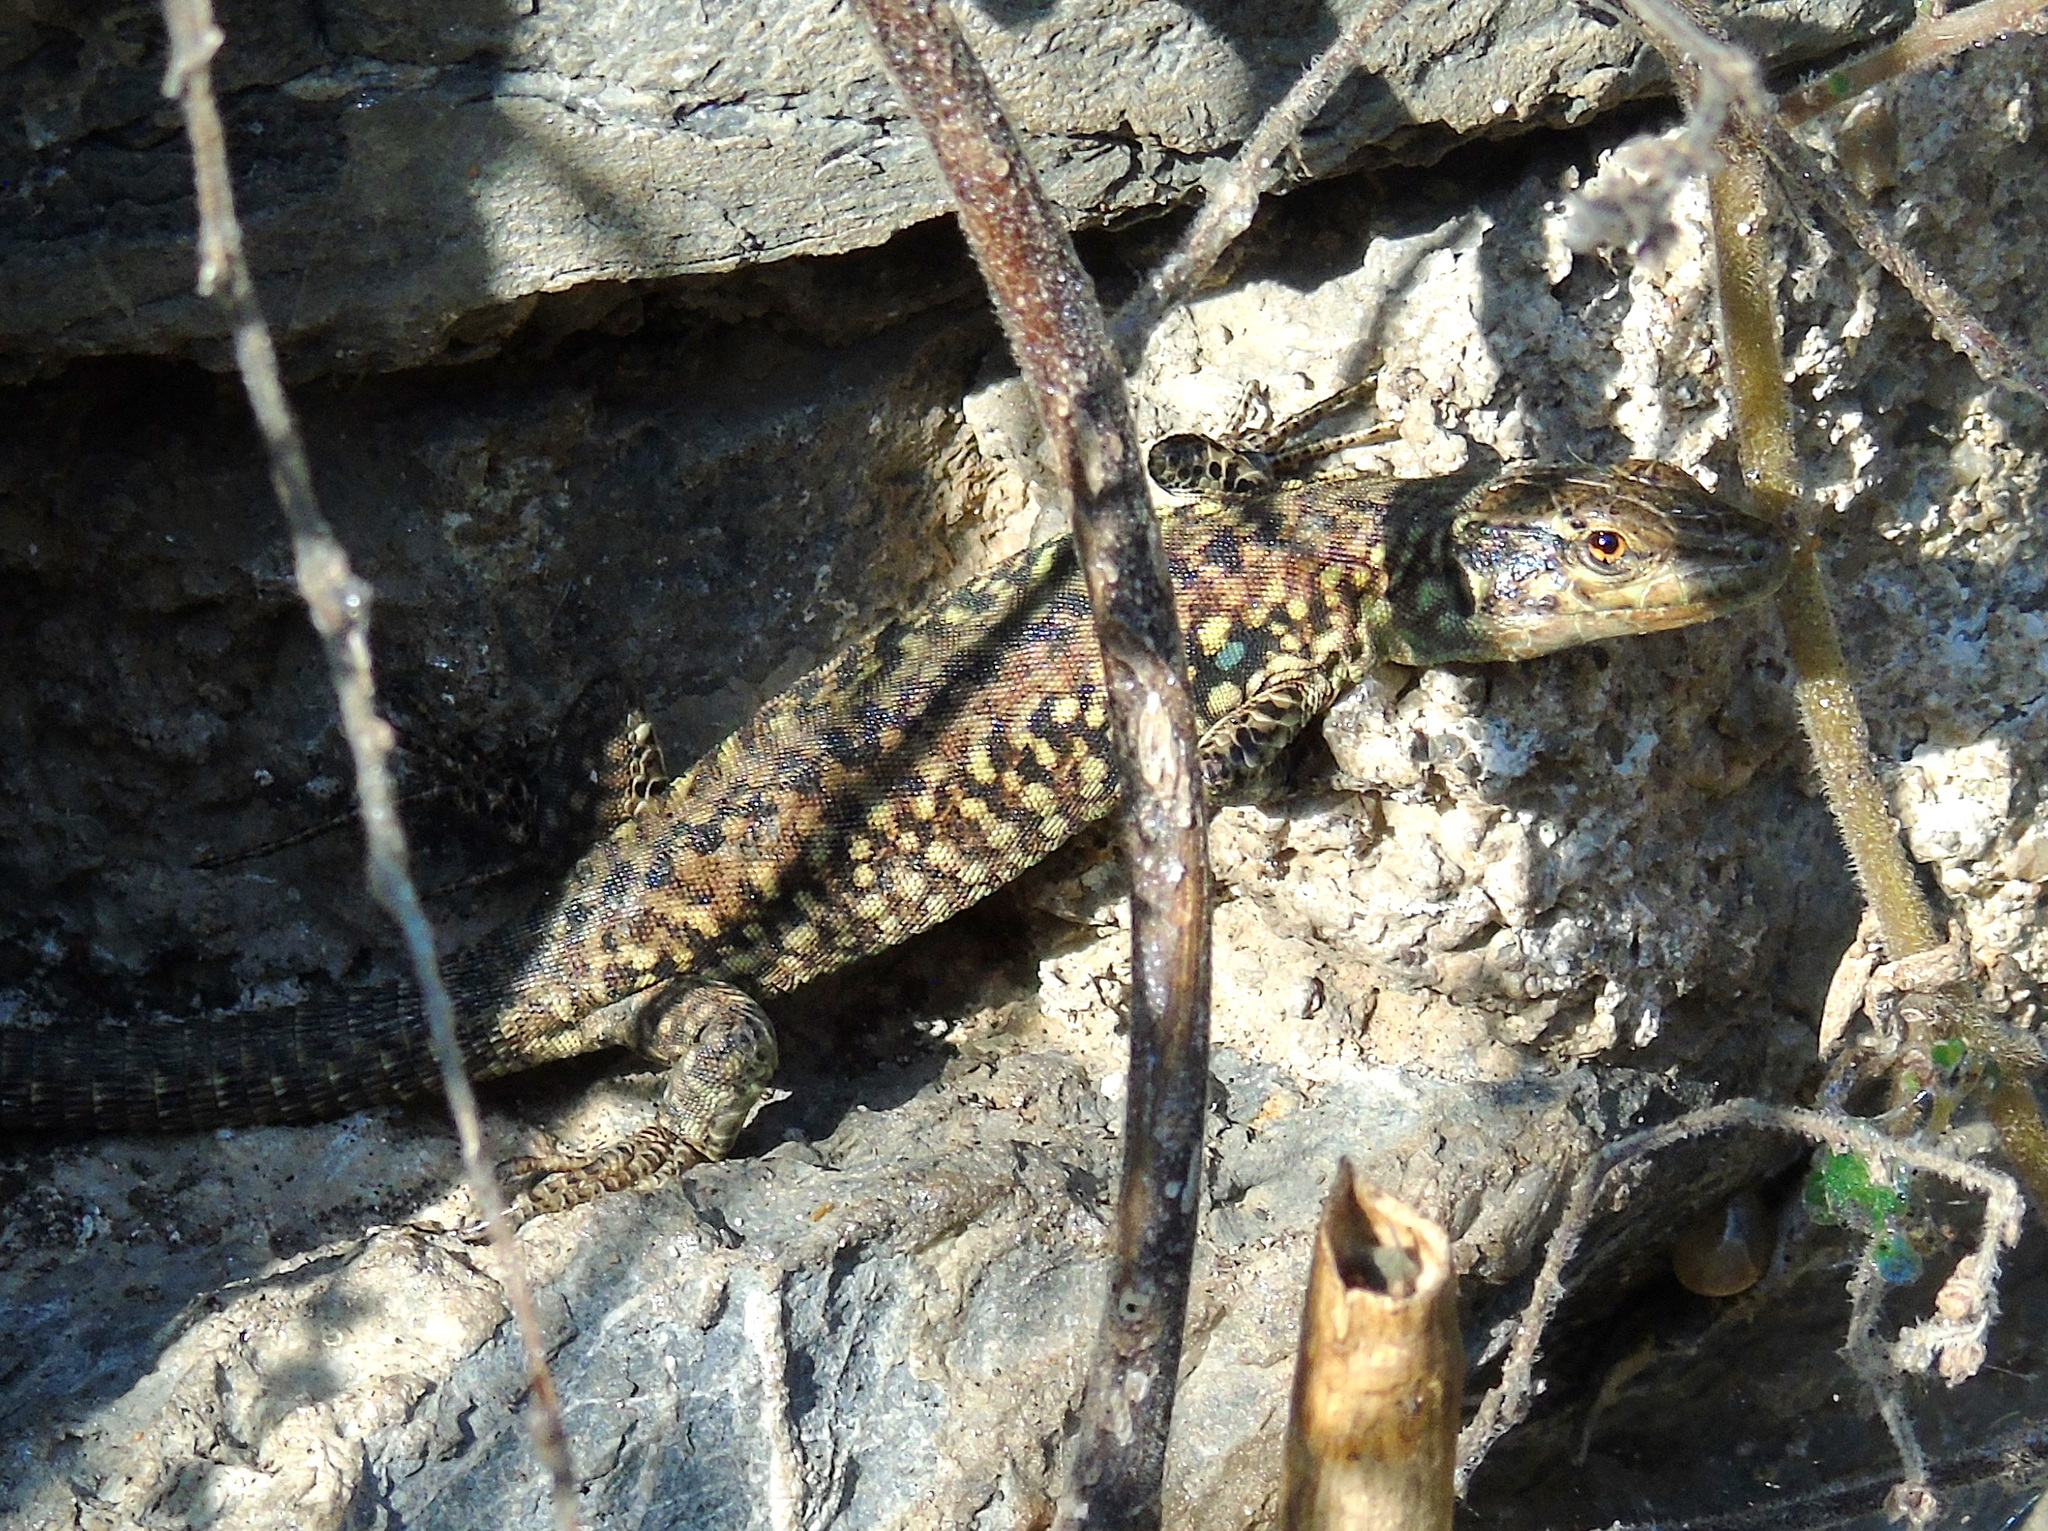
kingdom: Animalia
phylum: Chordata
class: Squamata
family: Lacertidae
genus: Podarcis
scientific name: Podarcis siculus
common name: Italian wall lizard
